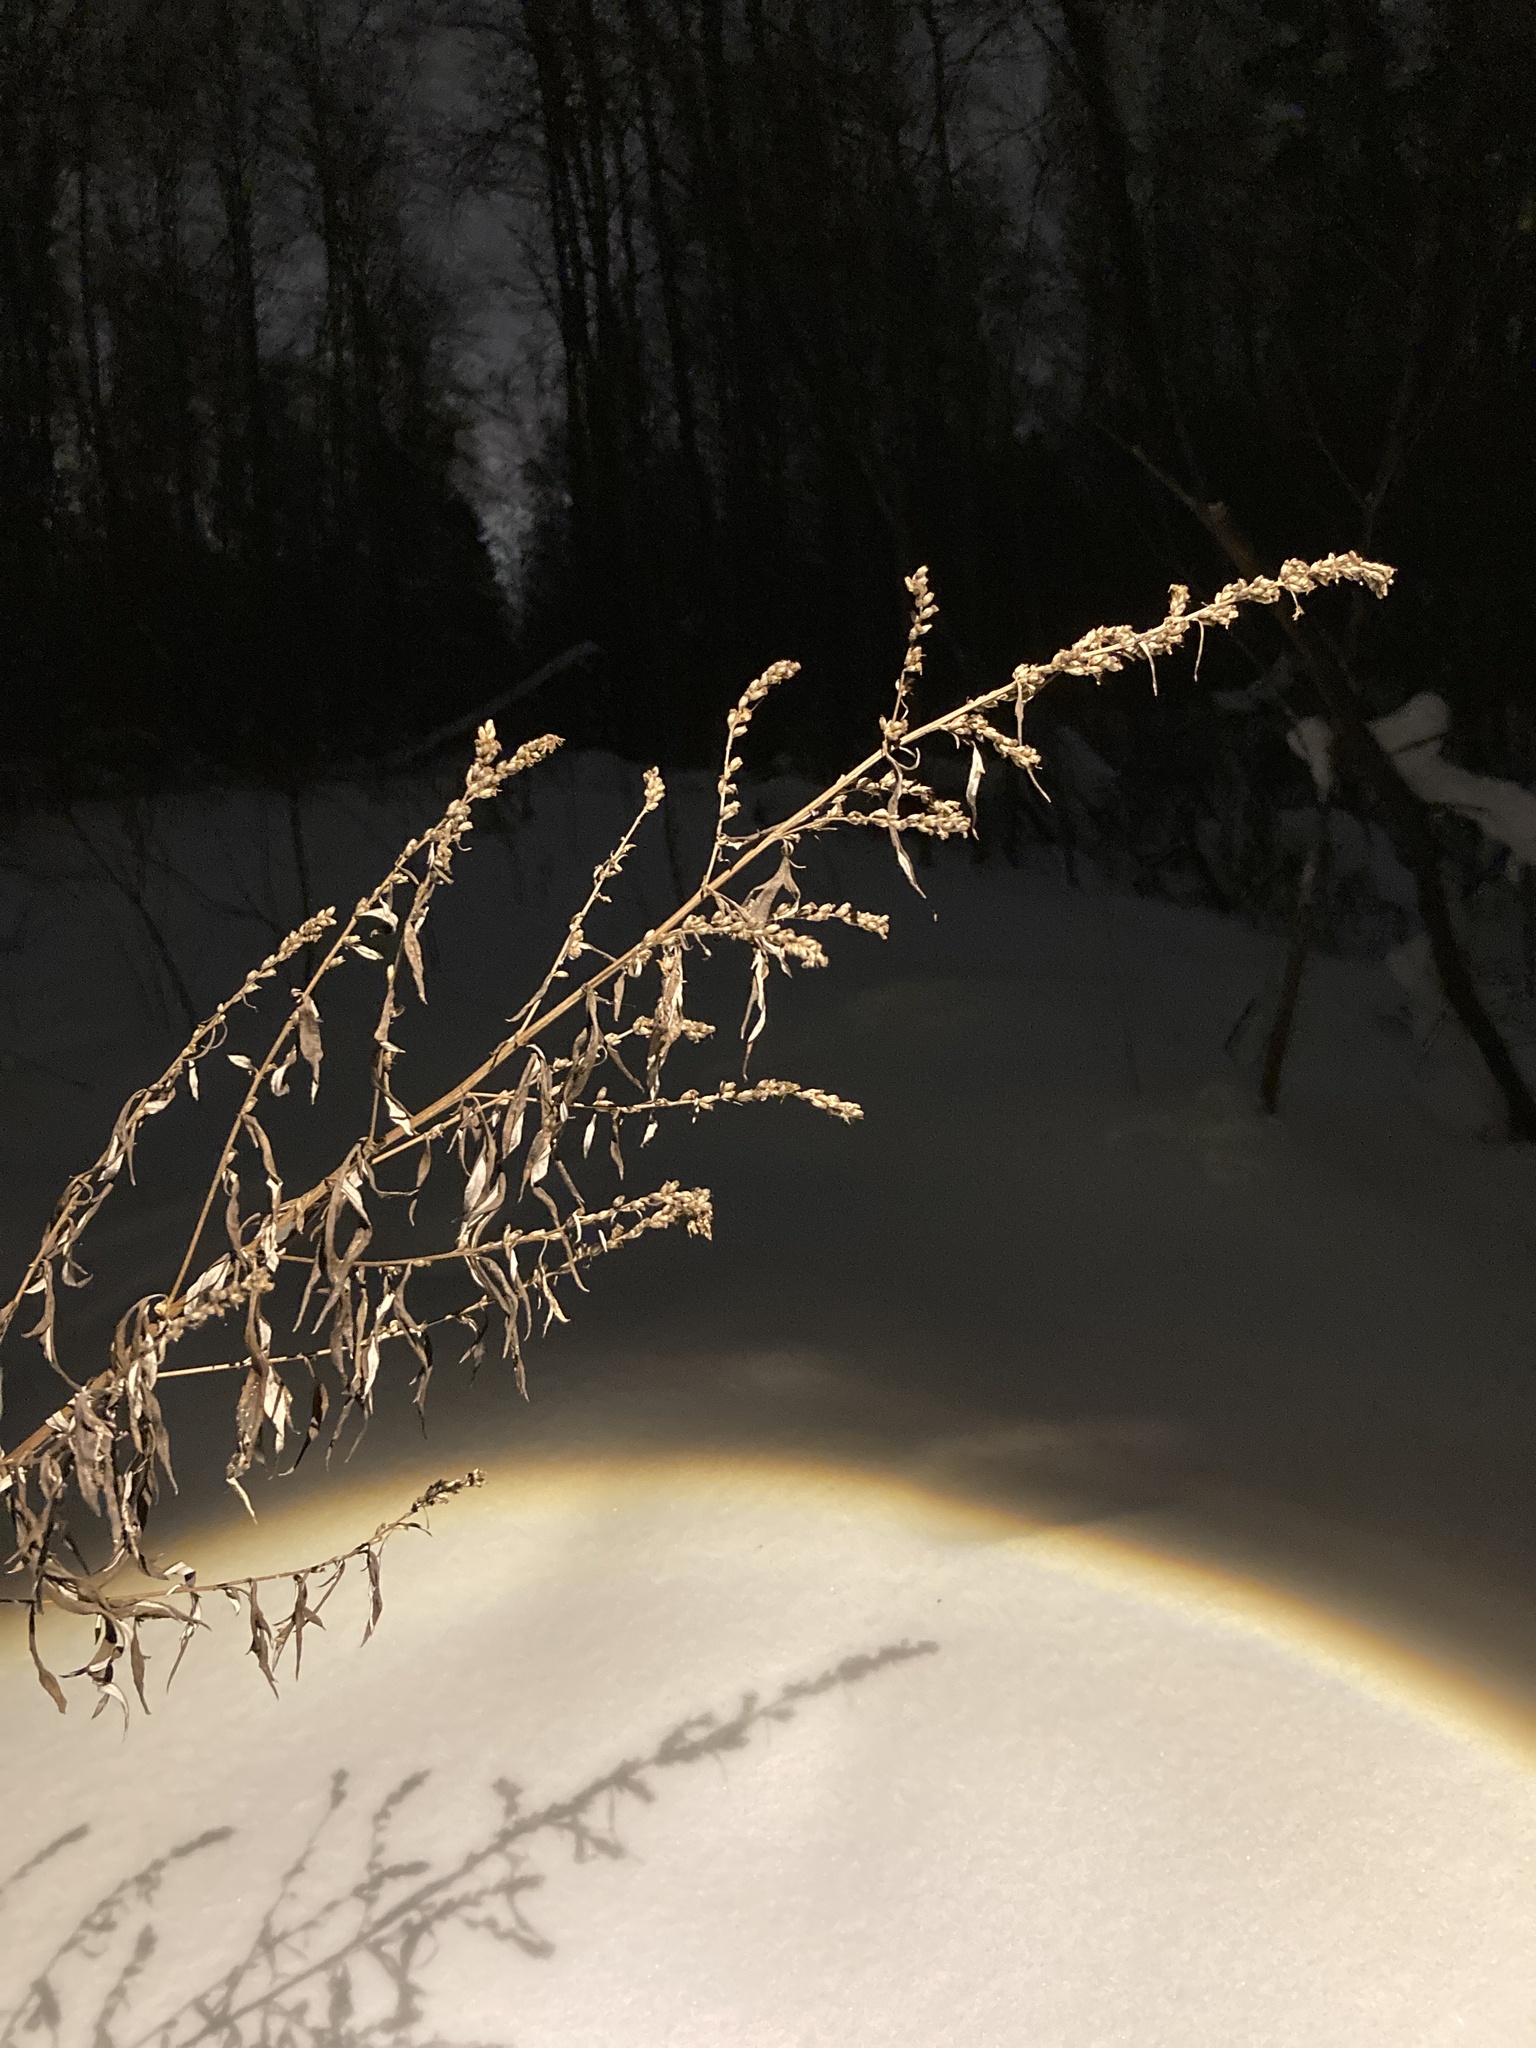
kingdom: Plantae
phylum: Tracheophyta
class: Magnoliopsida
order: Asterales
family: Asteraceae
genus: Artemisia
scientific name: Artemisia vulgaris
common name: Mugwort
